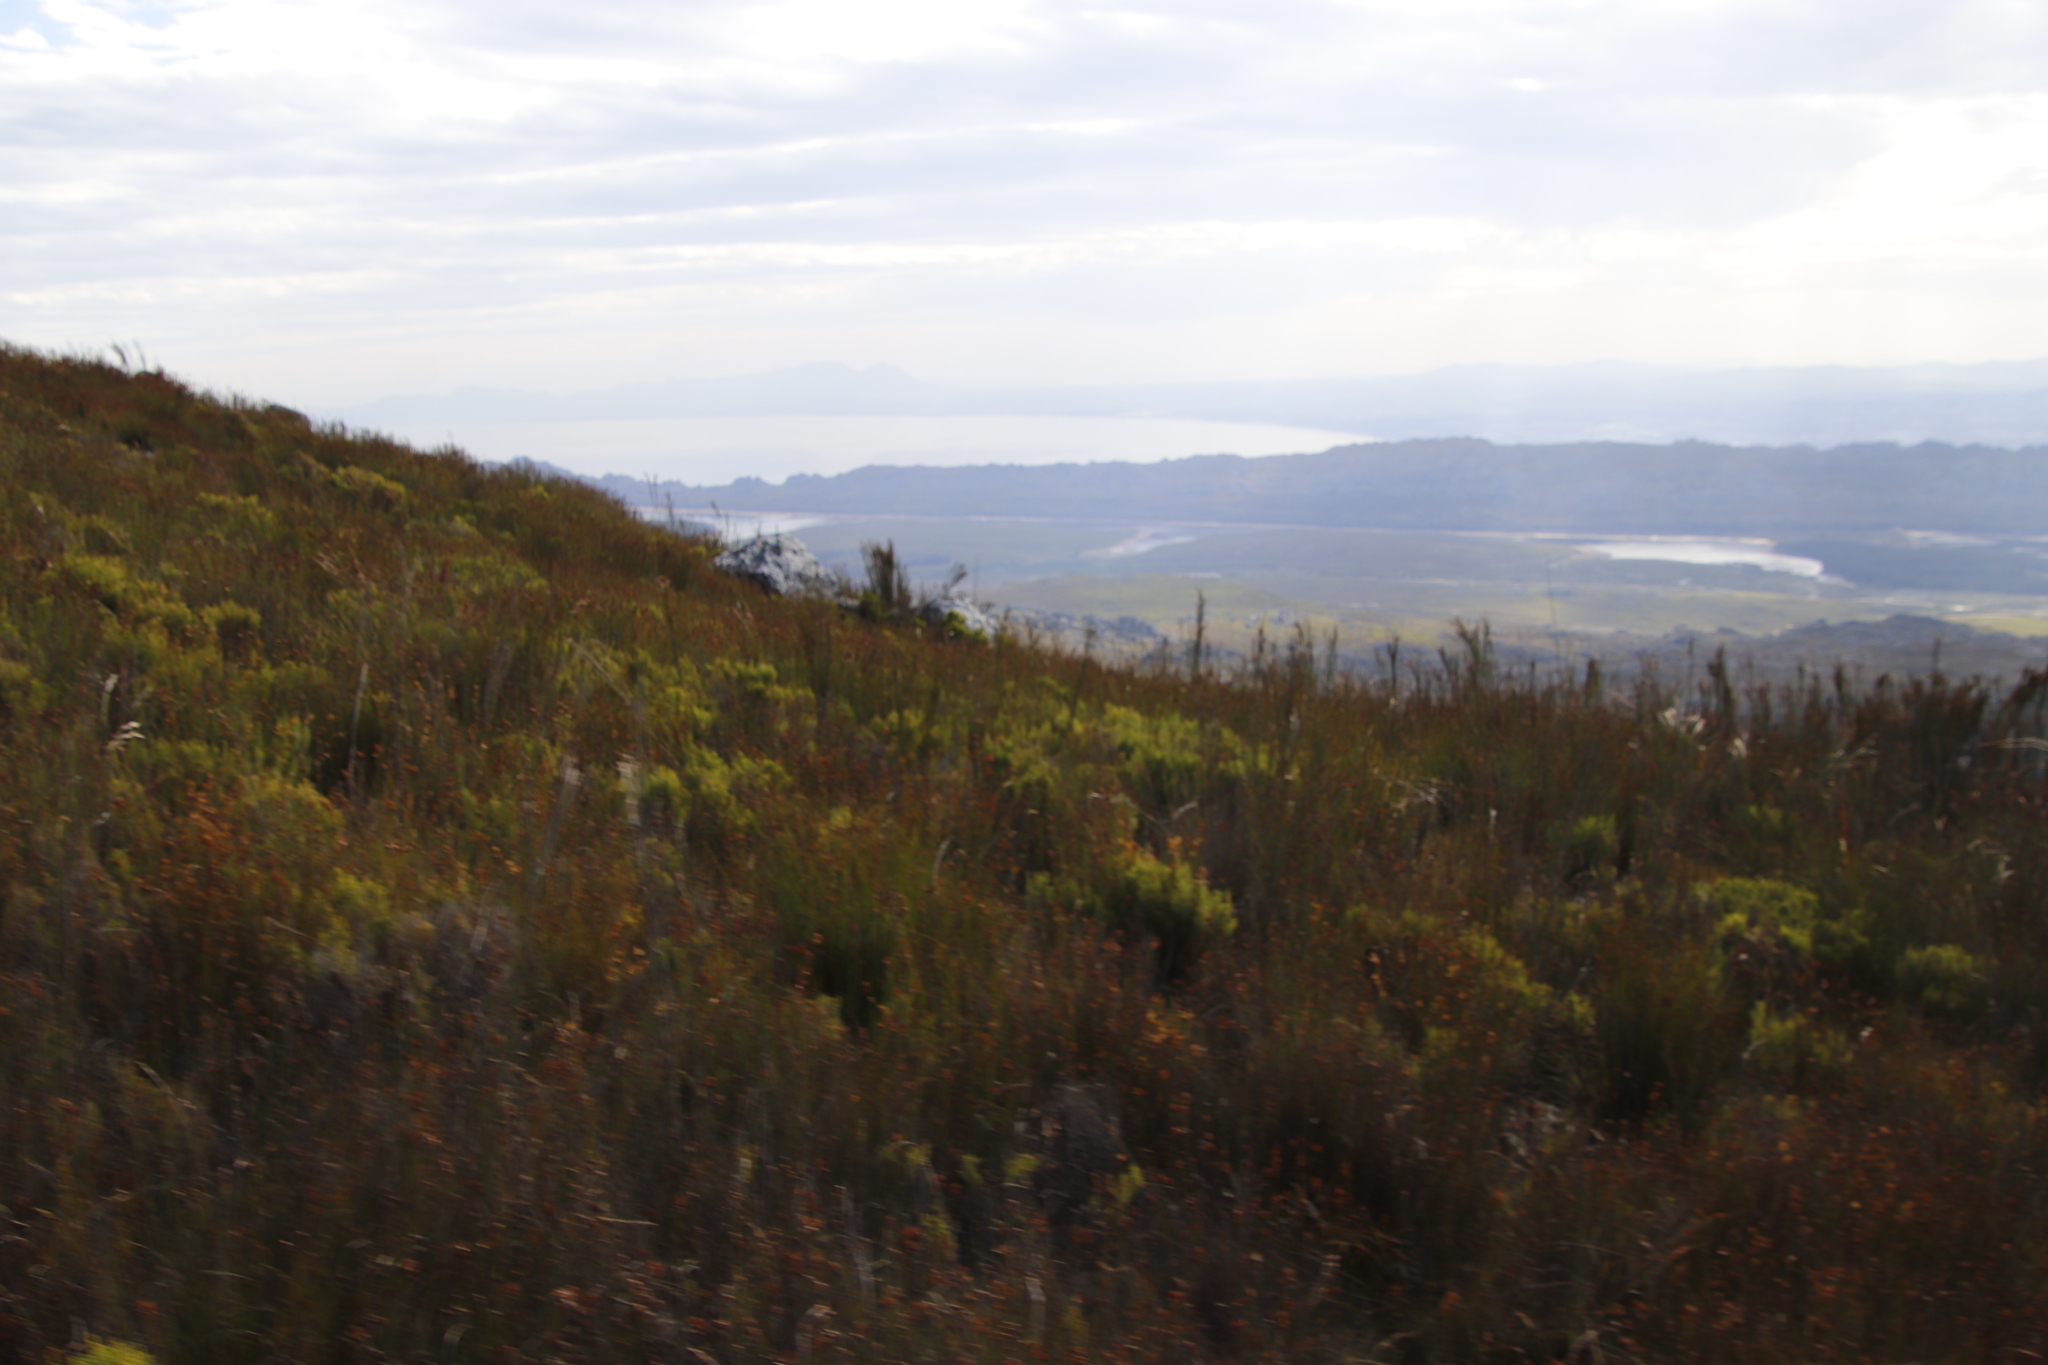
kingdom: Plantae
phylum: Tracheophyta
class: Magnoliopsida
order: Rosales
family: Rosaceae
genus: Cliffortia
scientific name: Cliffortia recurvata
